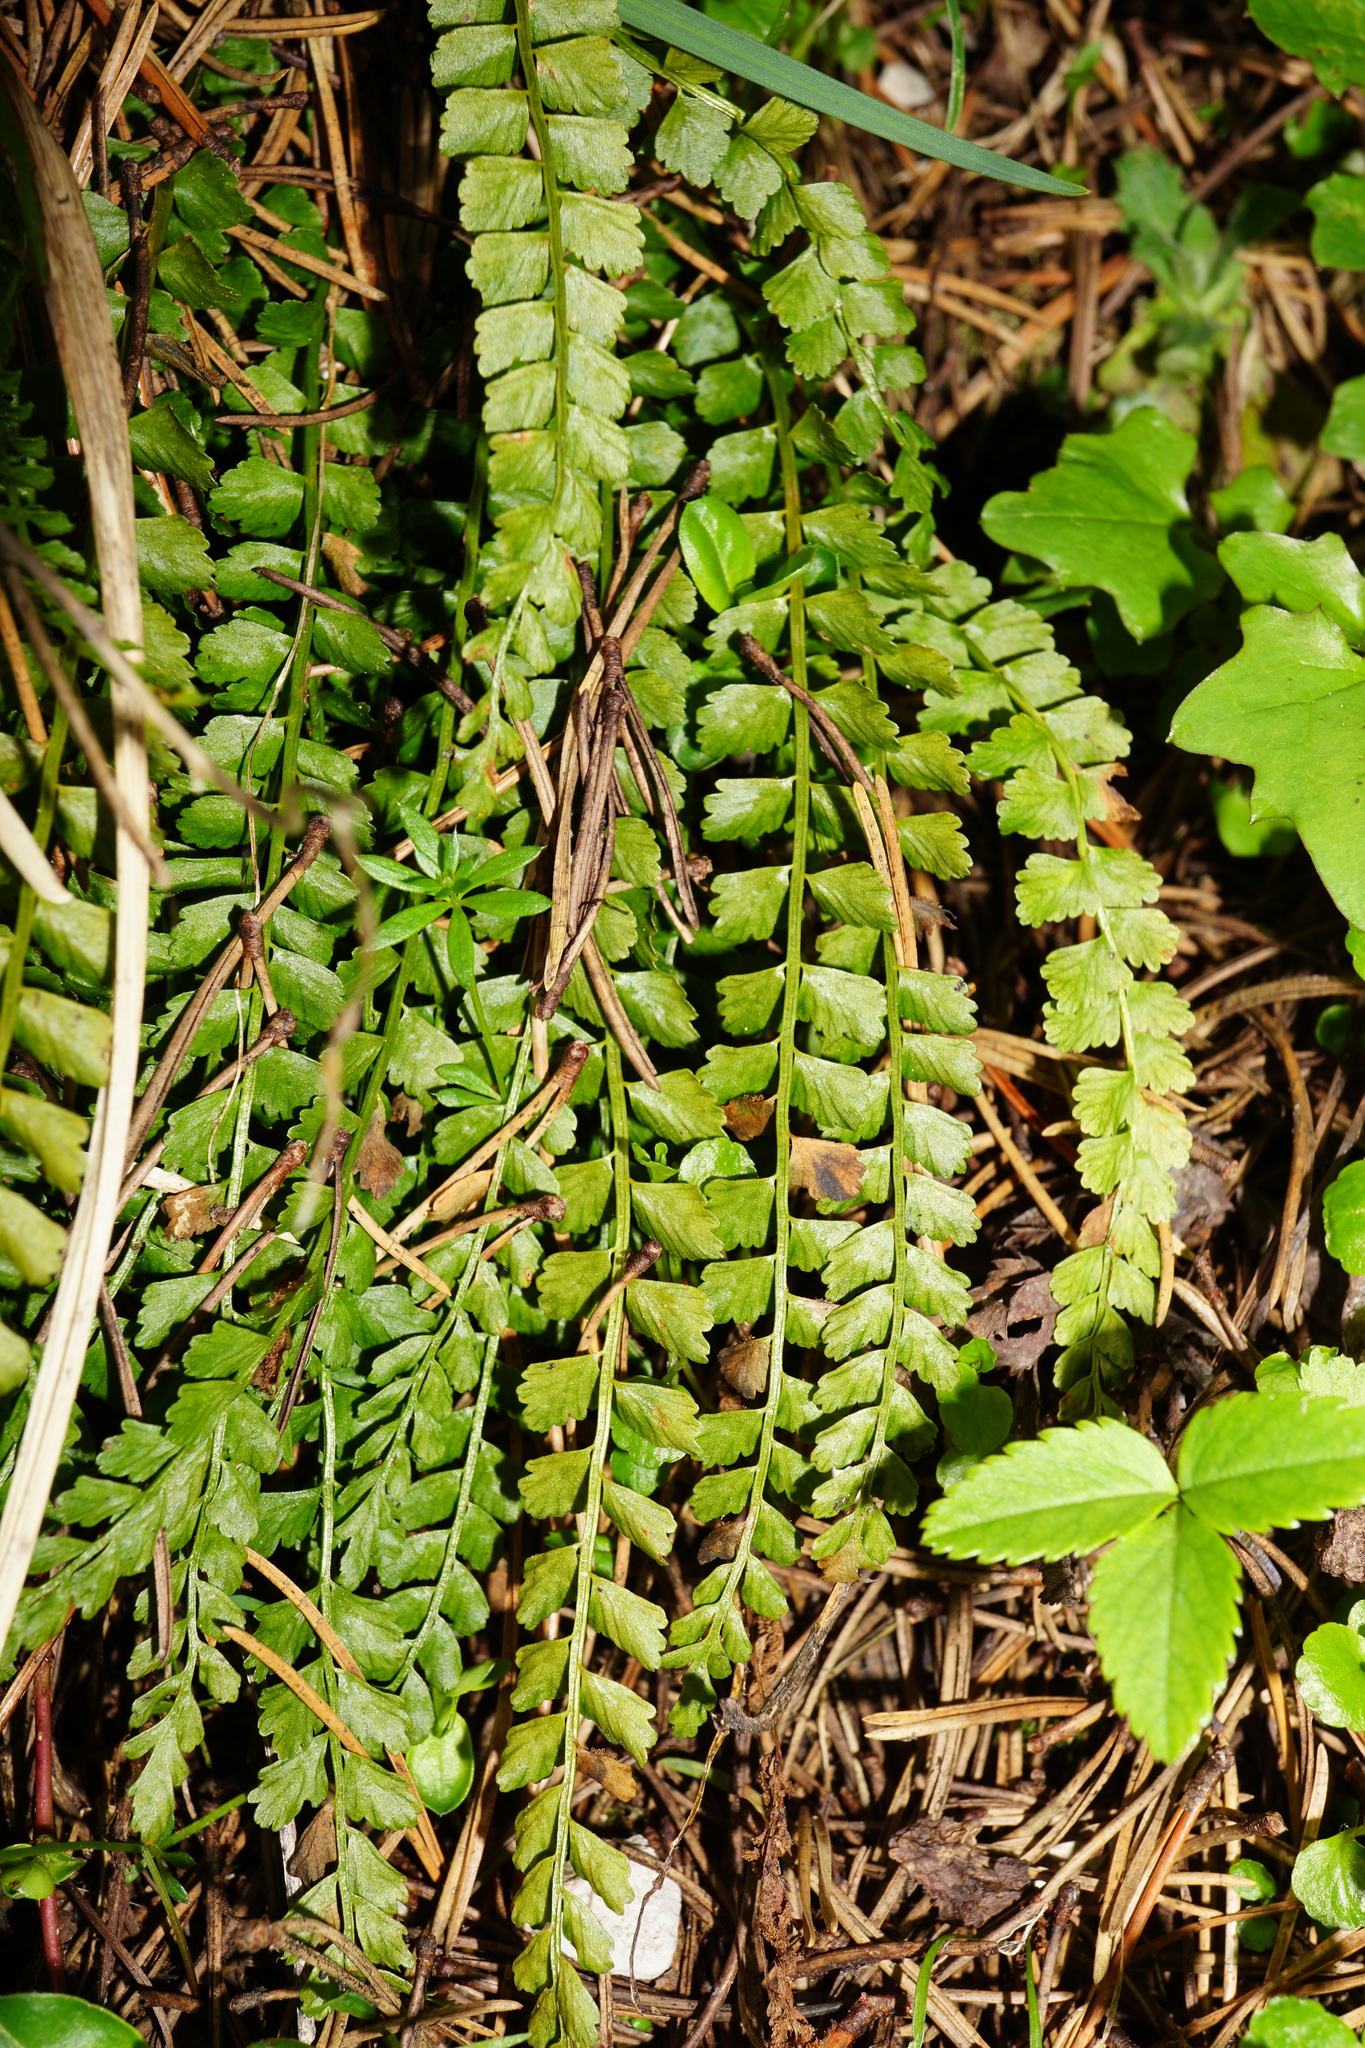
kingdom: Plantae
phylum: Tracheophyta
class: Polypodiopsida
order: Polypodiales
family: Aspleniaceae
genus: Asplenium
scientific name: Asplenium viride
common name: Green spleenwort
